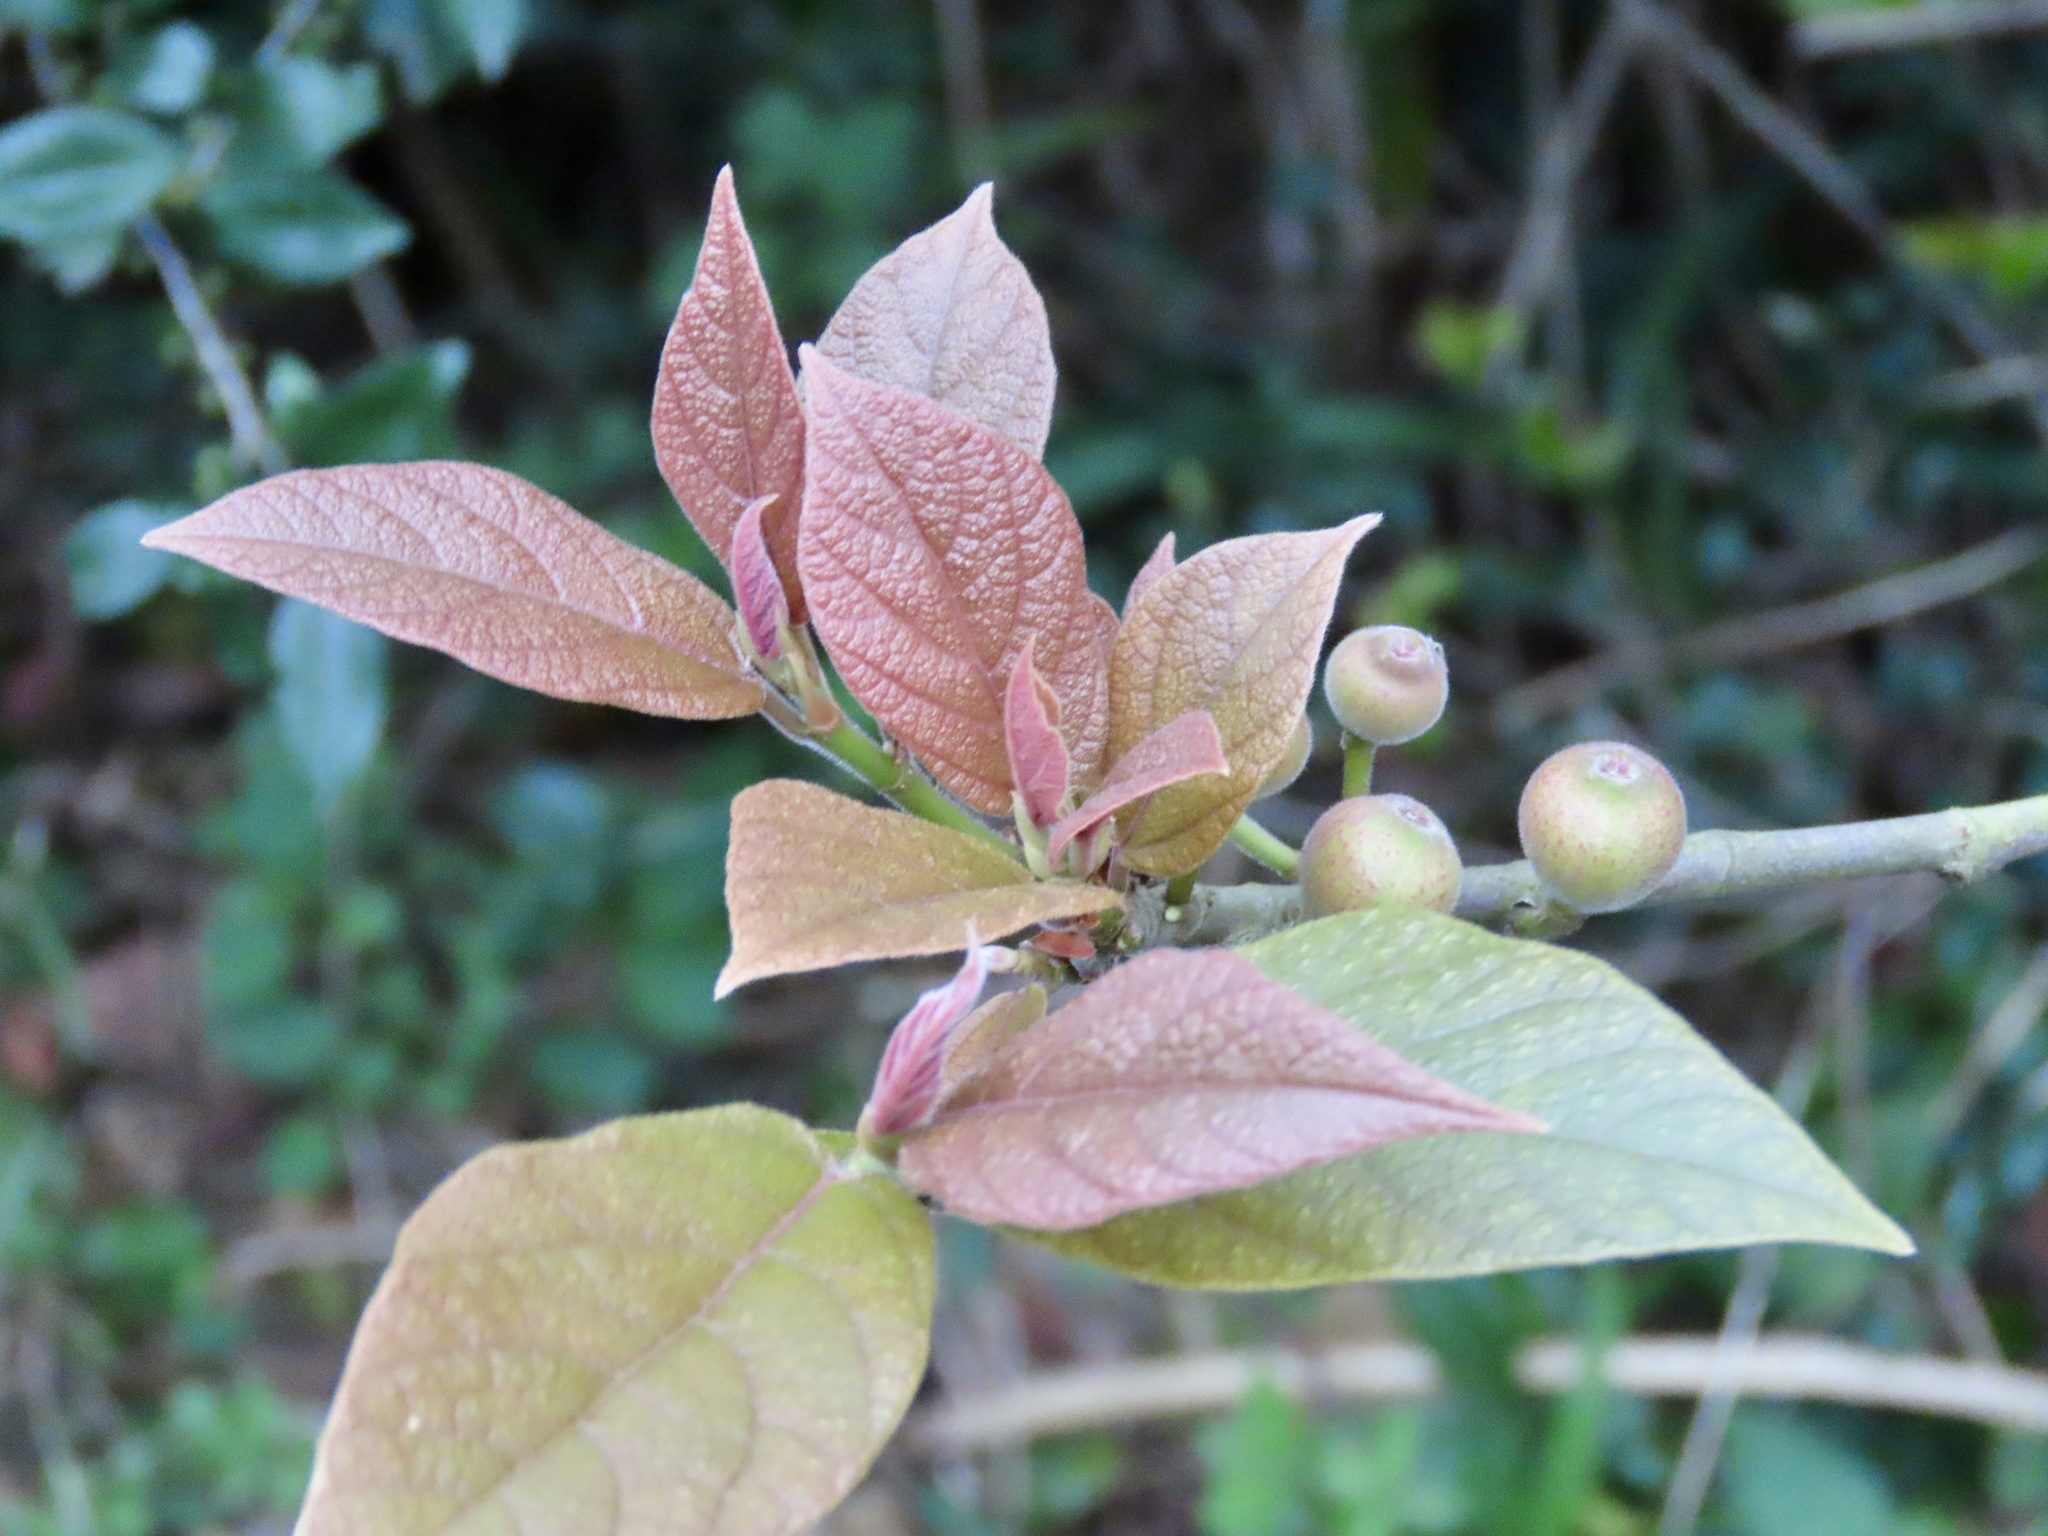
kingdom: Plantae
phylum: Tracheophyta
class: Magnoliopsida
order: Rosales
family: Moraceae
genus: Ficus
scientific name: Ficus erecta
